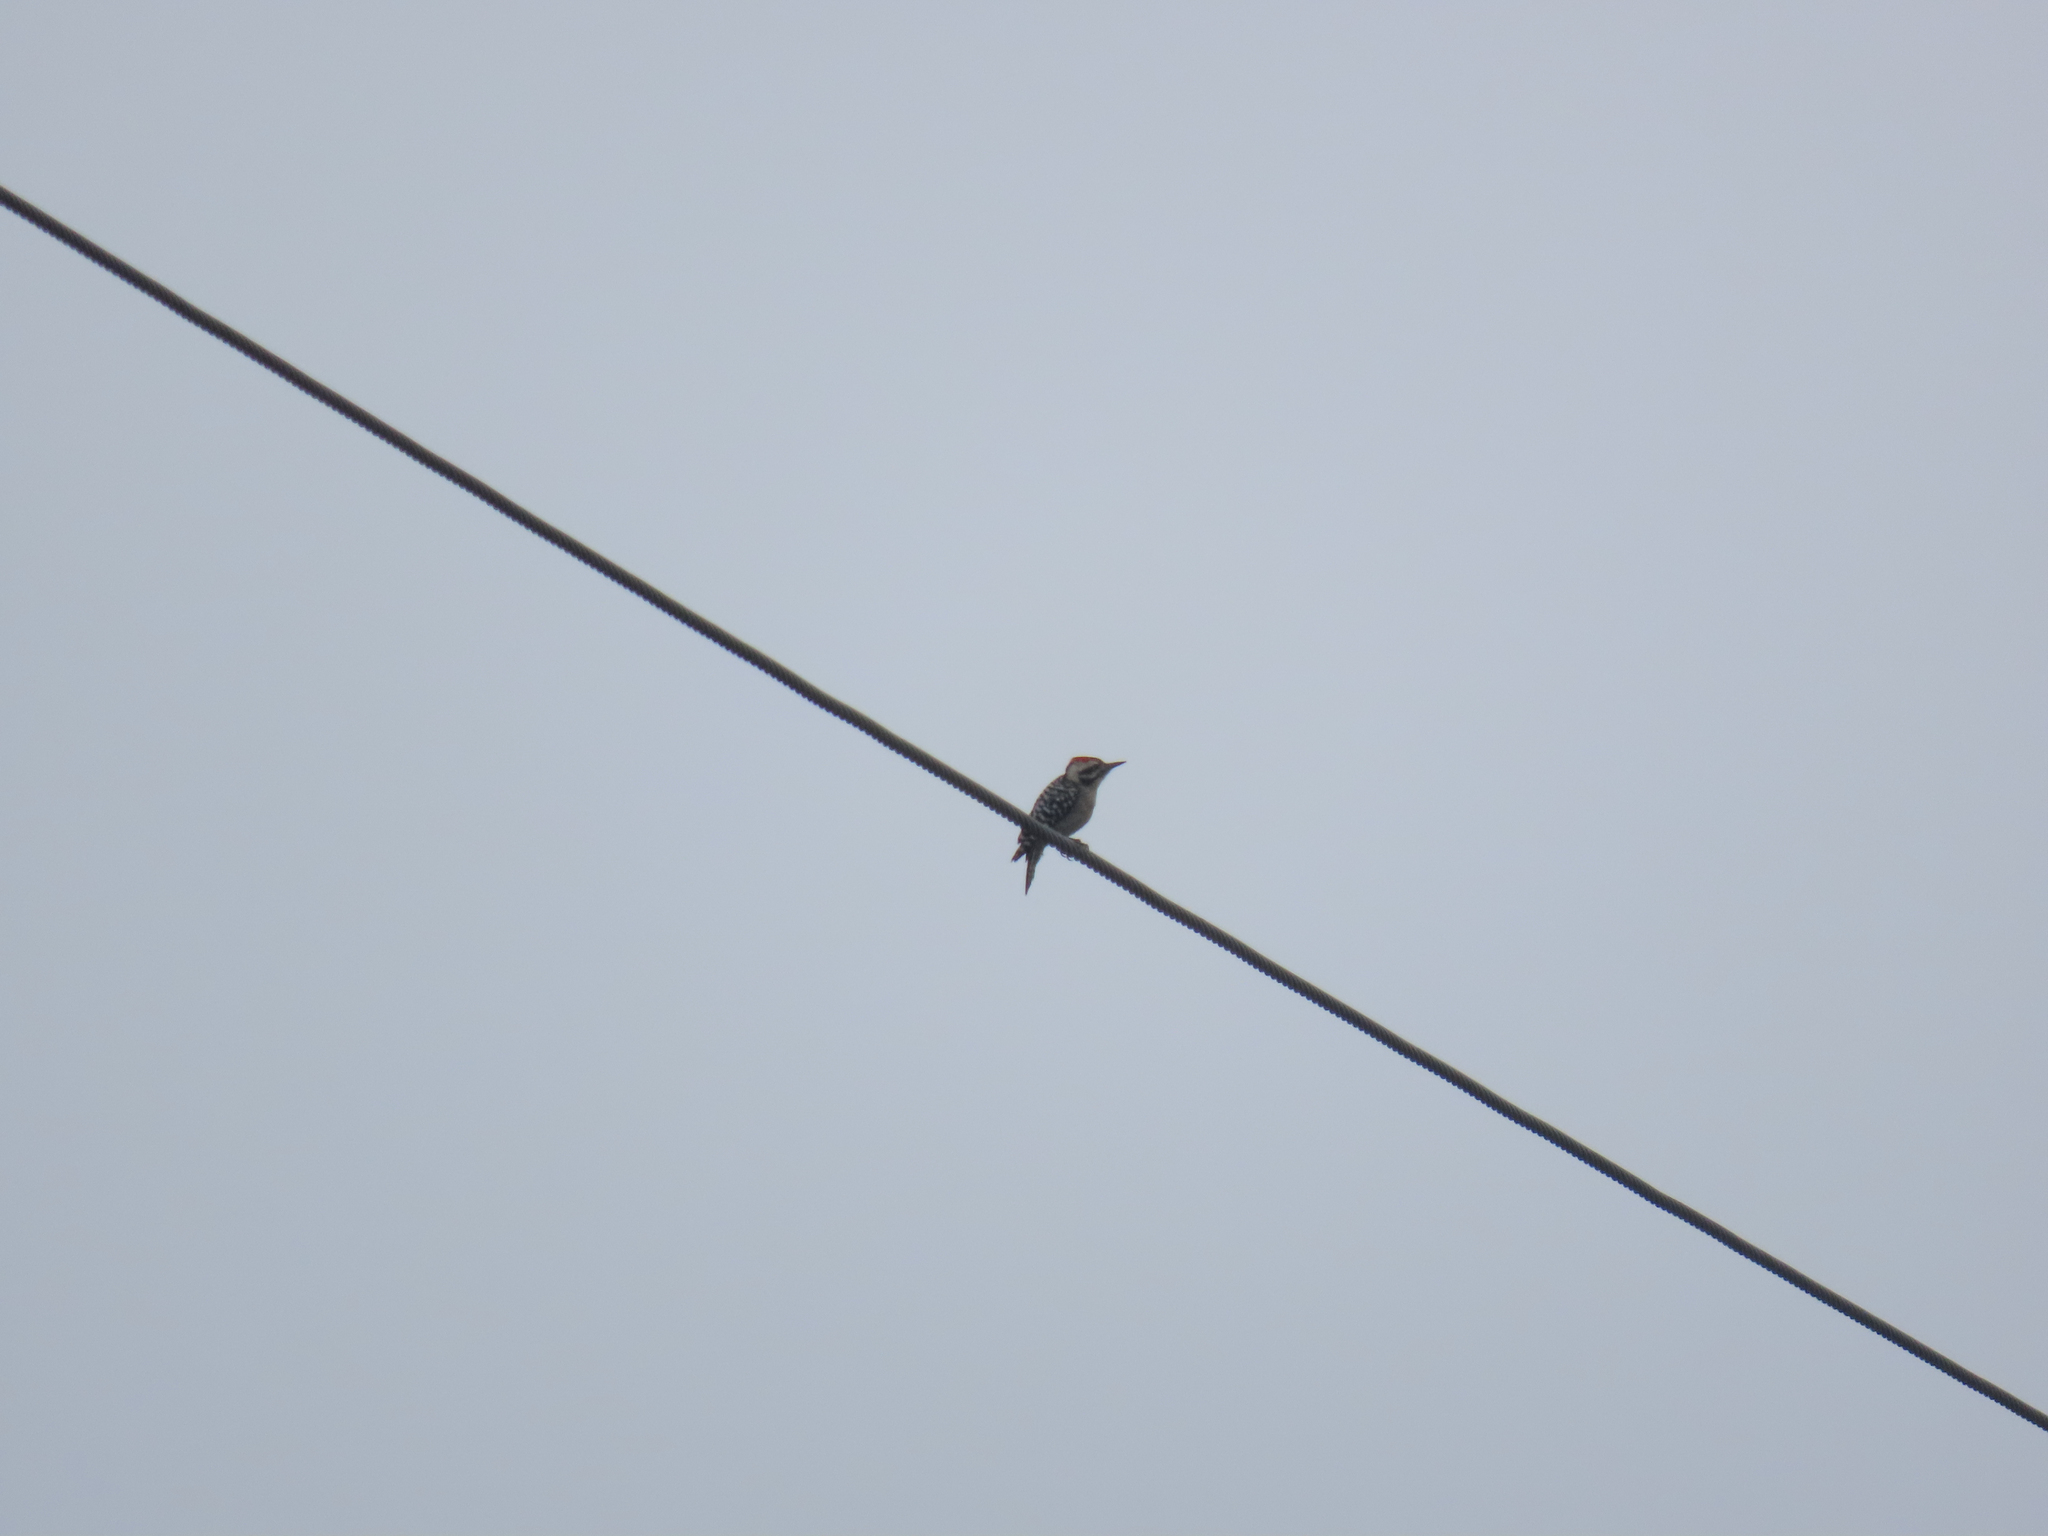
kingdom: Animalia
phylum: Chordata
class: Aves
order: Piciformes
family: Picidae
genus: Dryobates
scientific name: Dryobates scalaris
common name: Ladder-backed woodpecker
